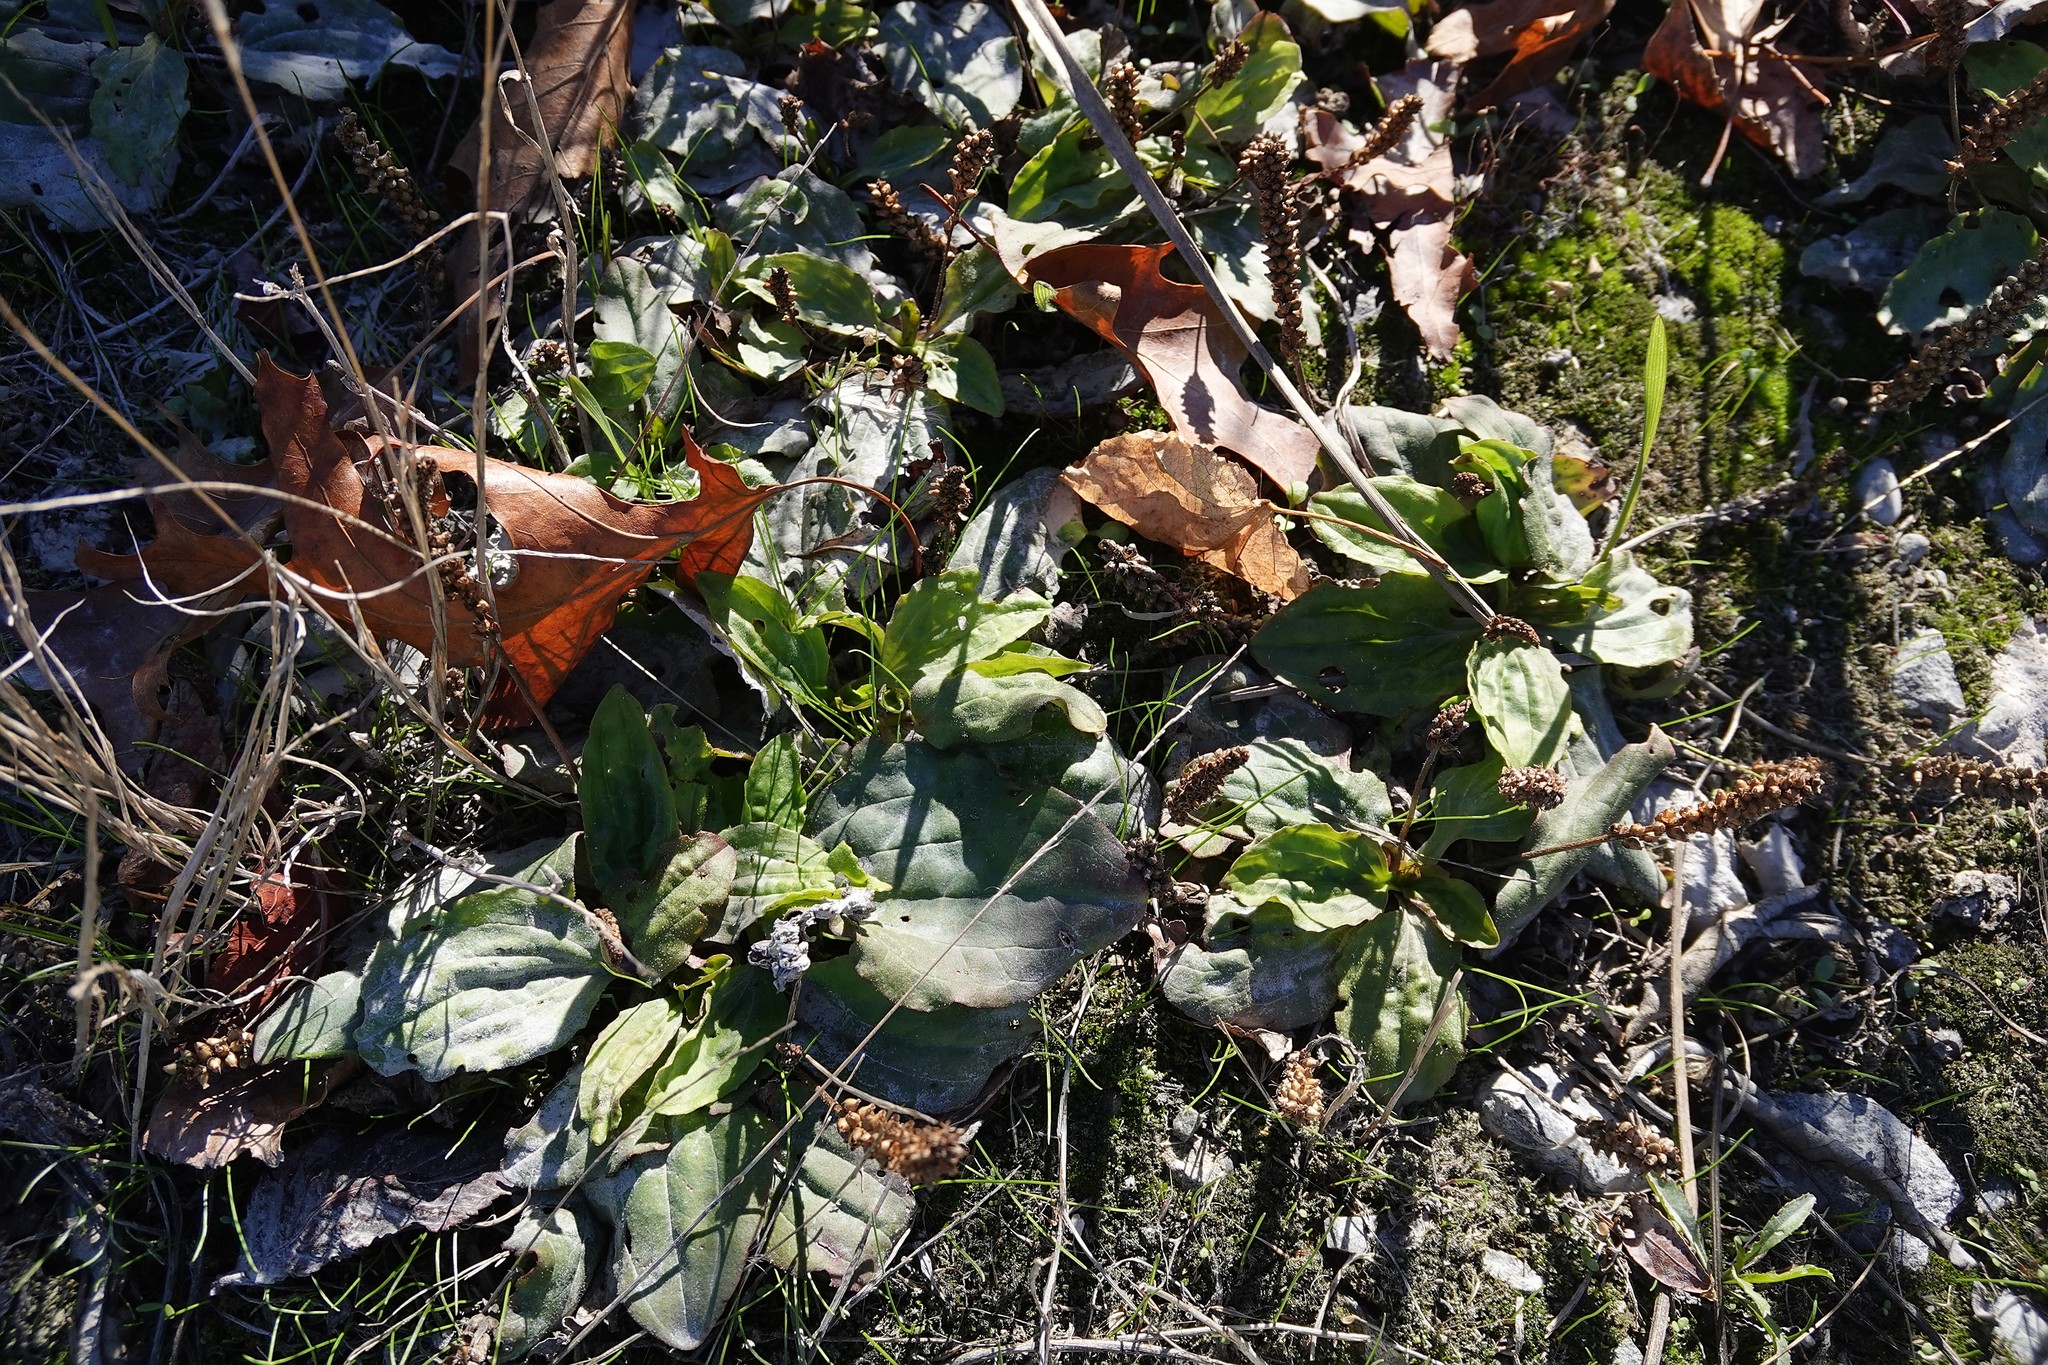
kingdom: Plantae
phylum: Tracheophyta
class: Magnoliopsida
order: Lamiales
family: Plantaginaceae
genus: Plantago
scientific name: Plantago major
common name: Common plantain
